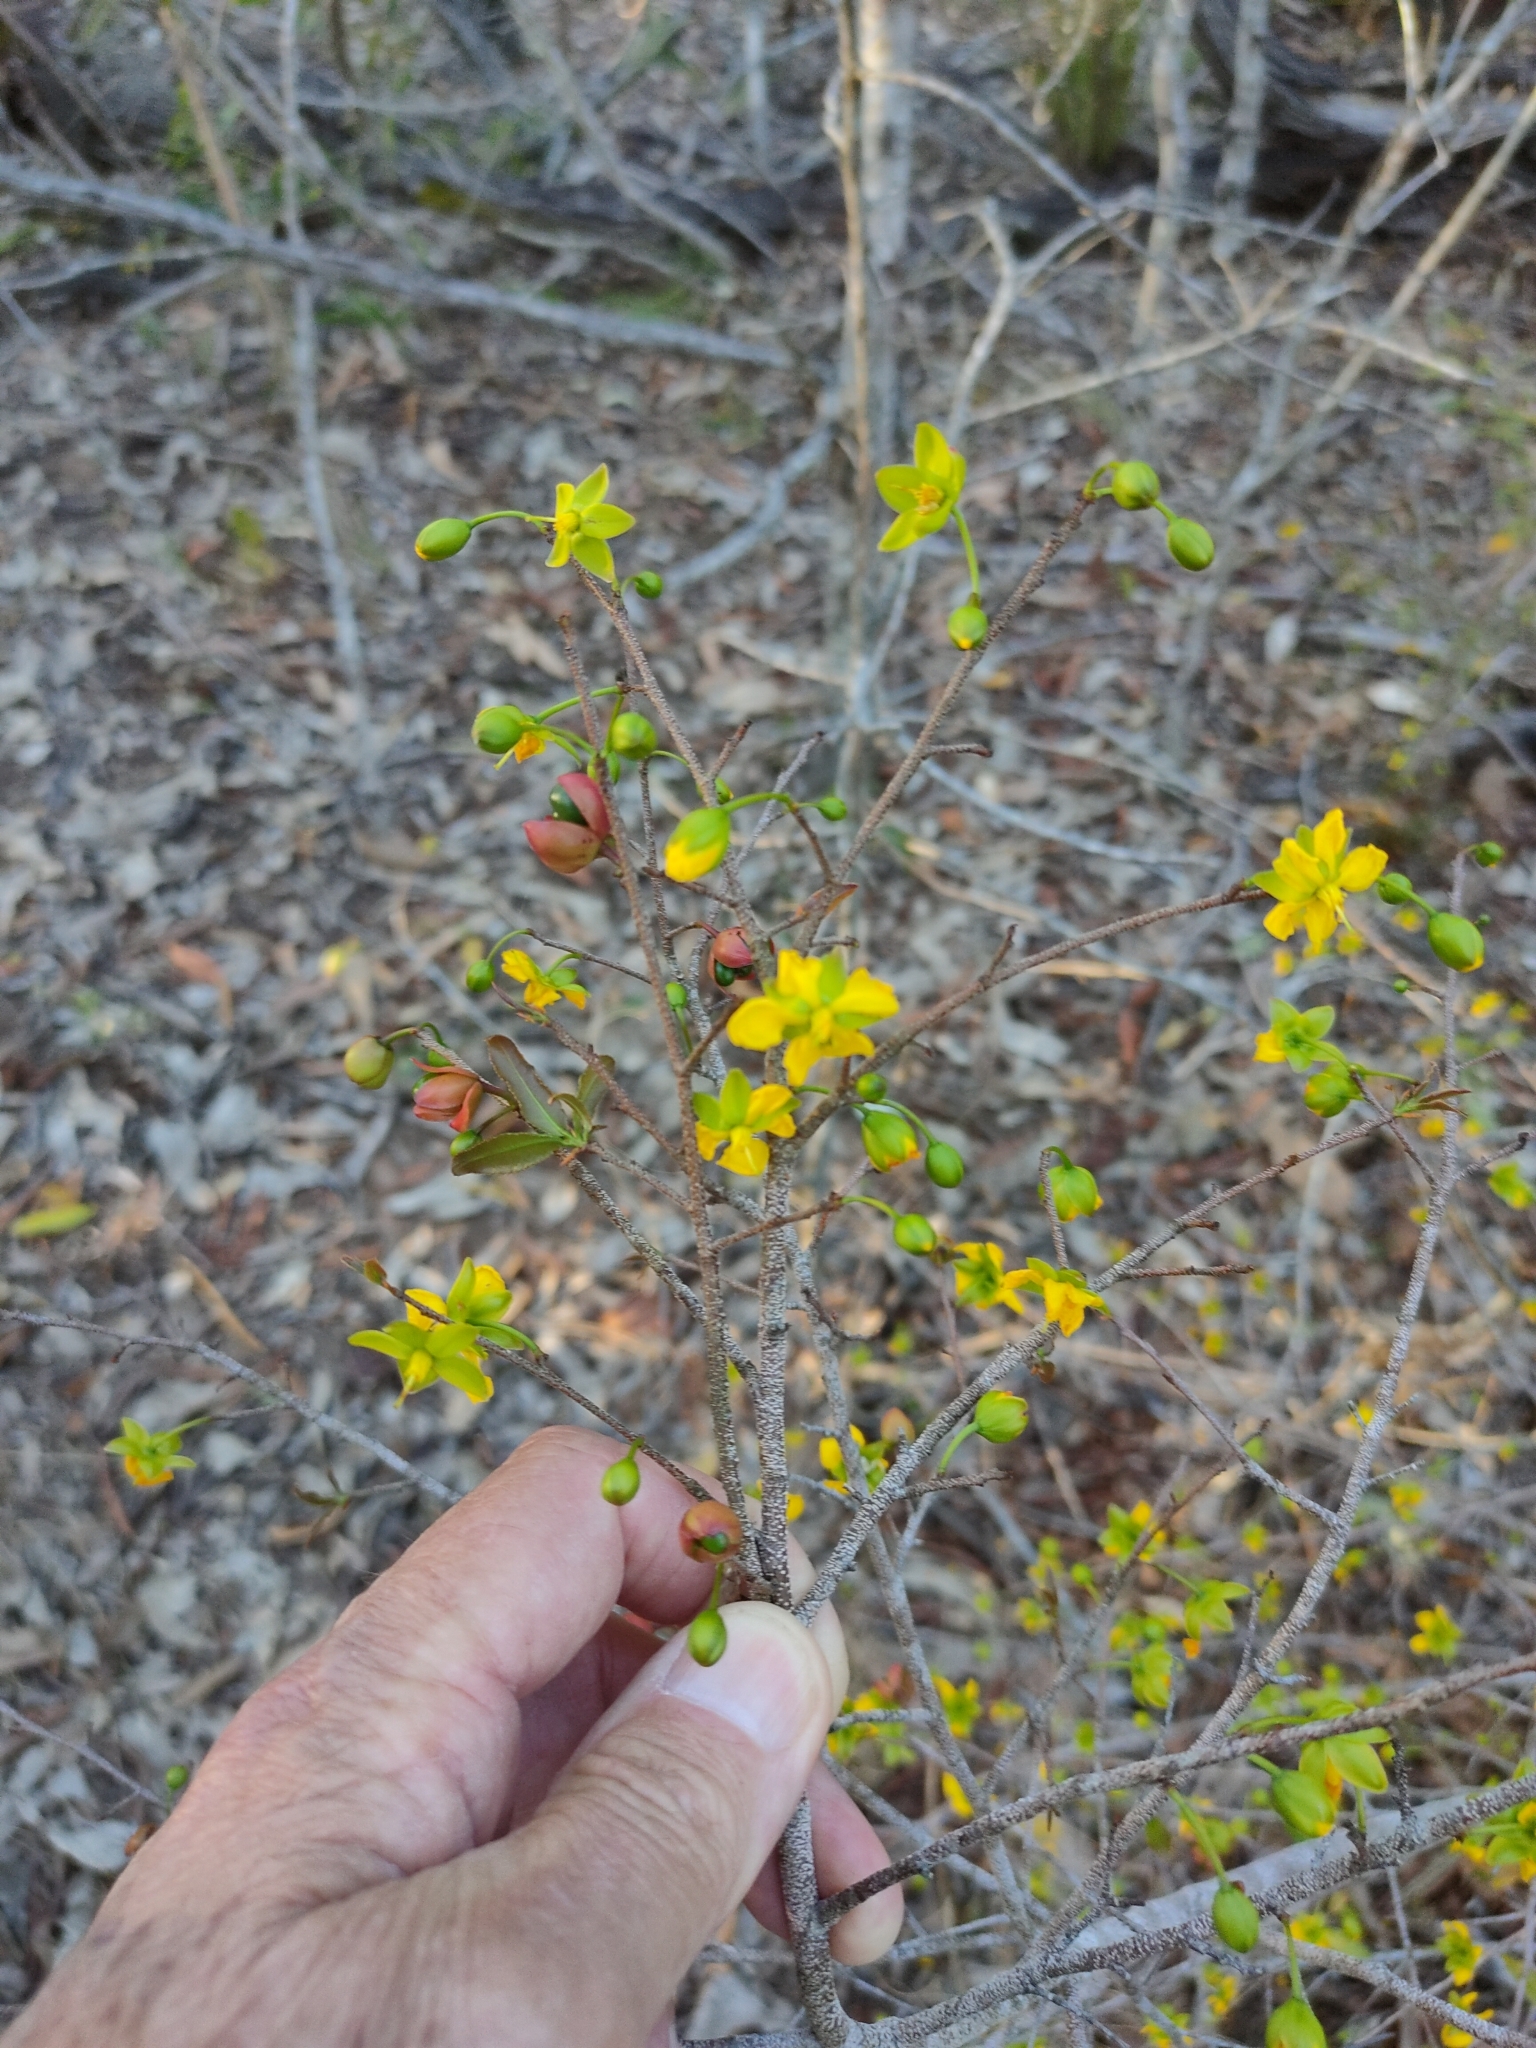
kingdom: Plantae
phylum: Tracheophyta
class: Magnoliopsida
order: Malpighiales
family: Ochnaceae
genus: Ochna
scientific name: Ochna serrulata
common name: Mickey mouse plant
